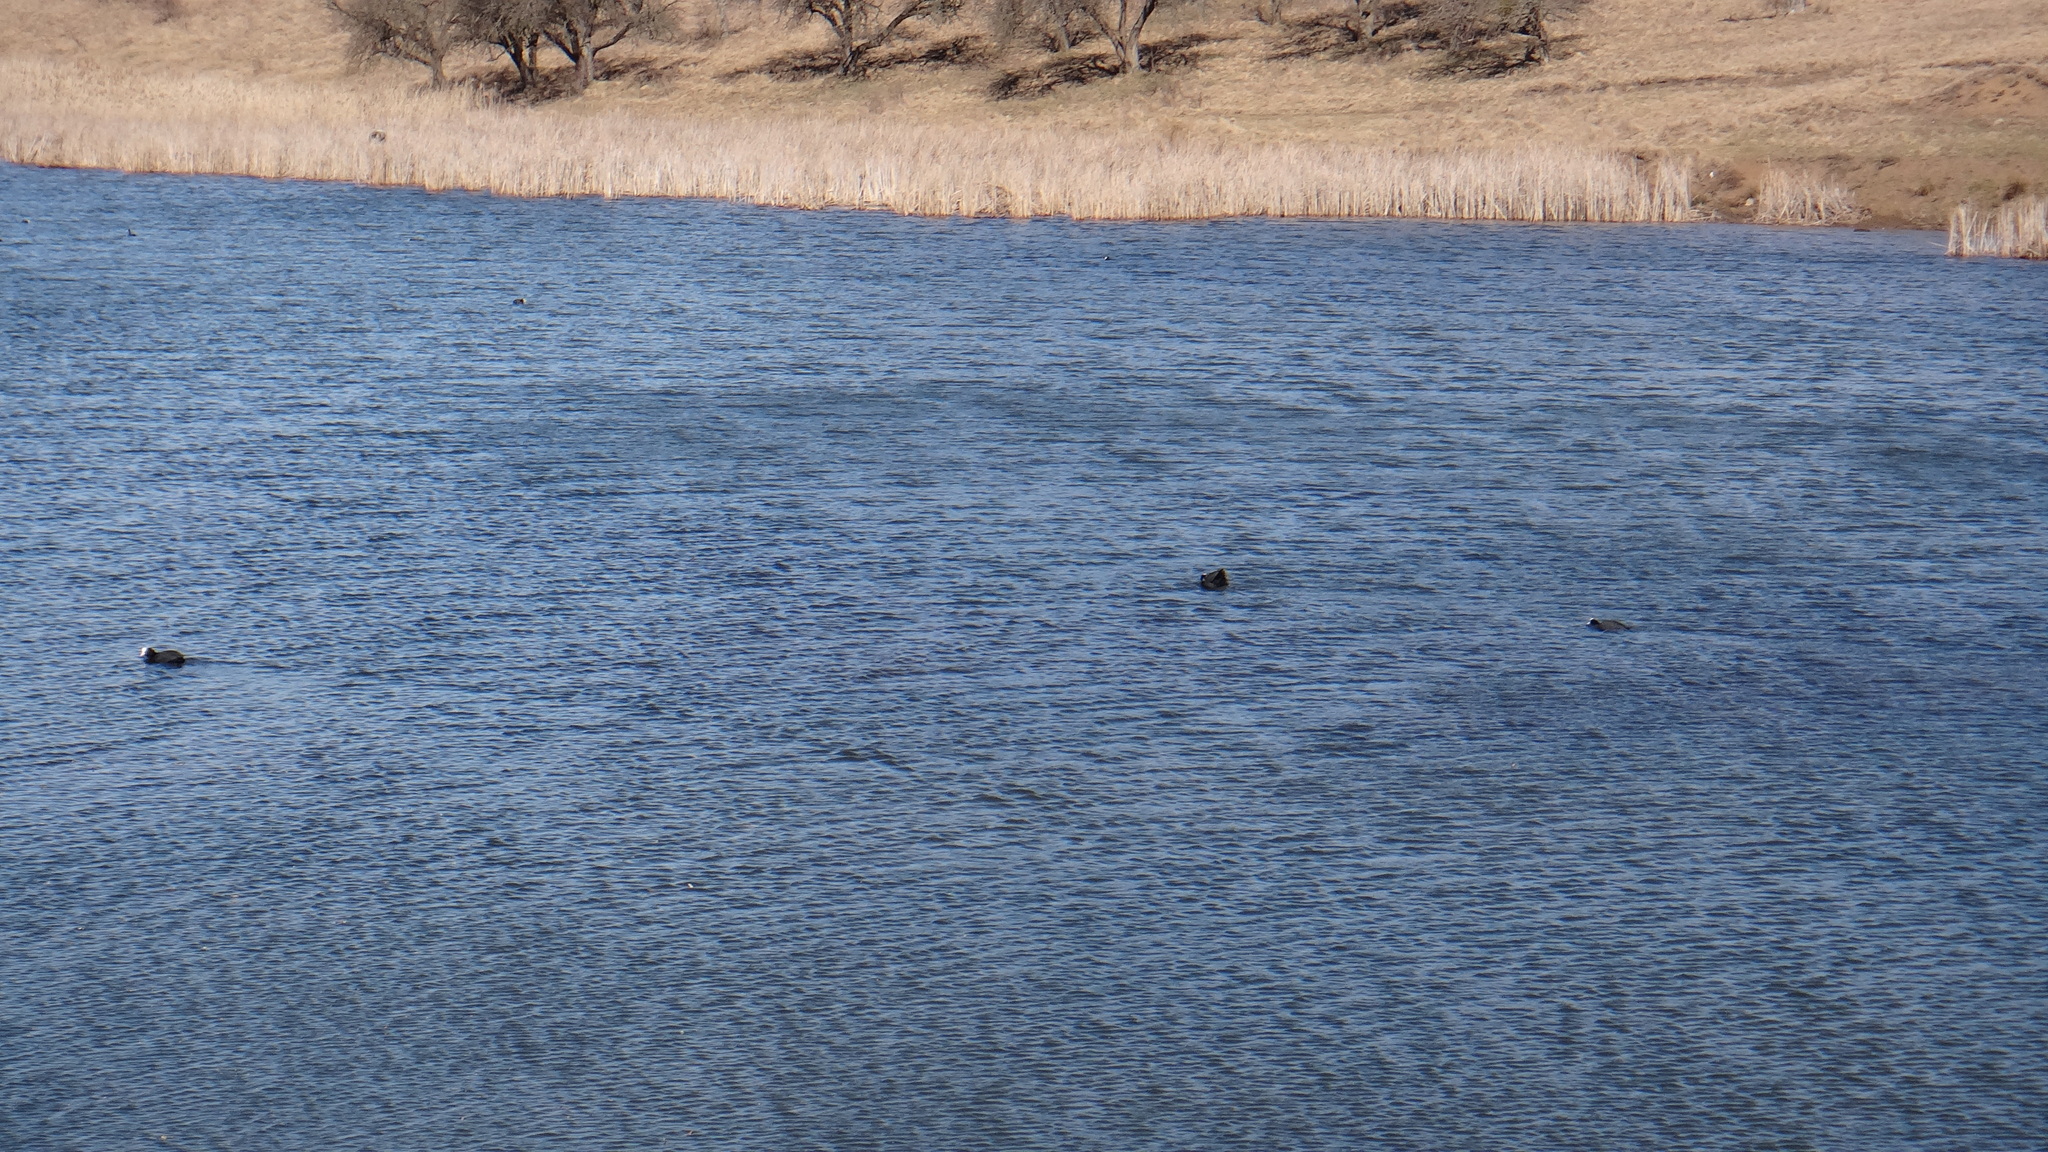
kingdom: Animalia
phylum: Chordata
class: Aves
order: Gruiformes
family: Rallidae
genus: Fulica
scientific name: Fulica atra
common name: Eurasian coot
